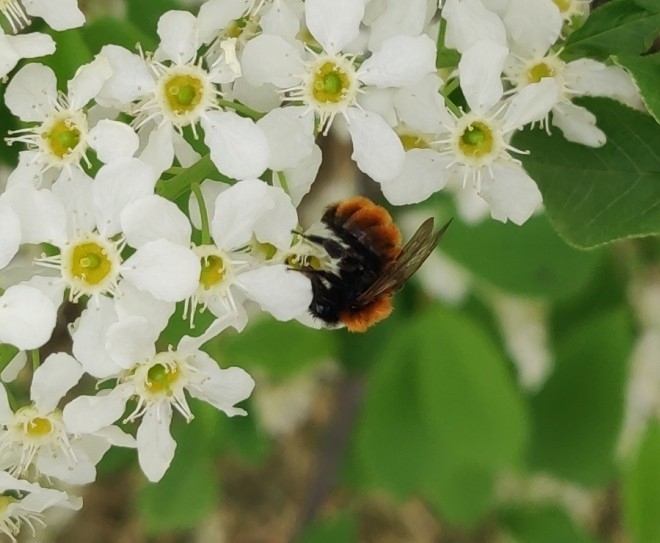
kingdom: Animalia
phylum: Arthropoda
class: Insecta
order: Hymenoptera
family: Andrenidae
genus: Andrena
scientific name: Andrena fulva
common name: Tawny mining bee
